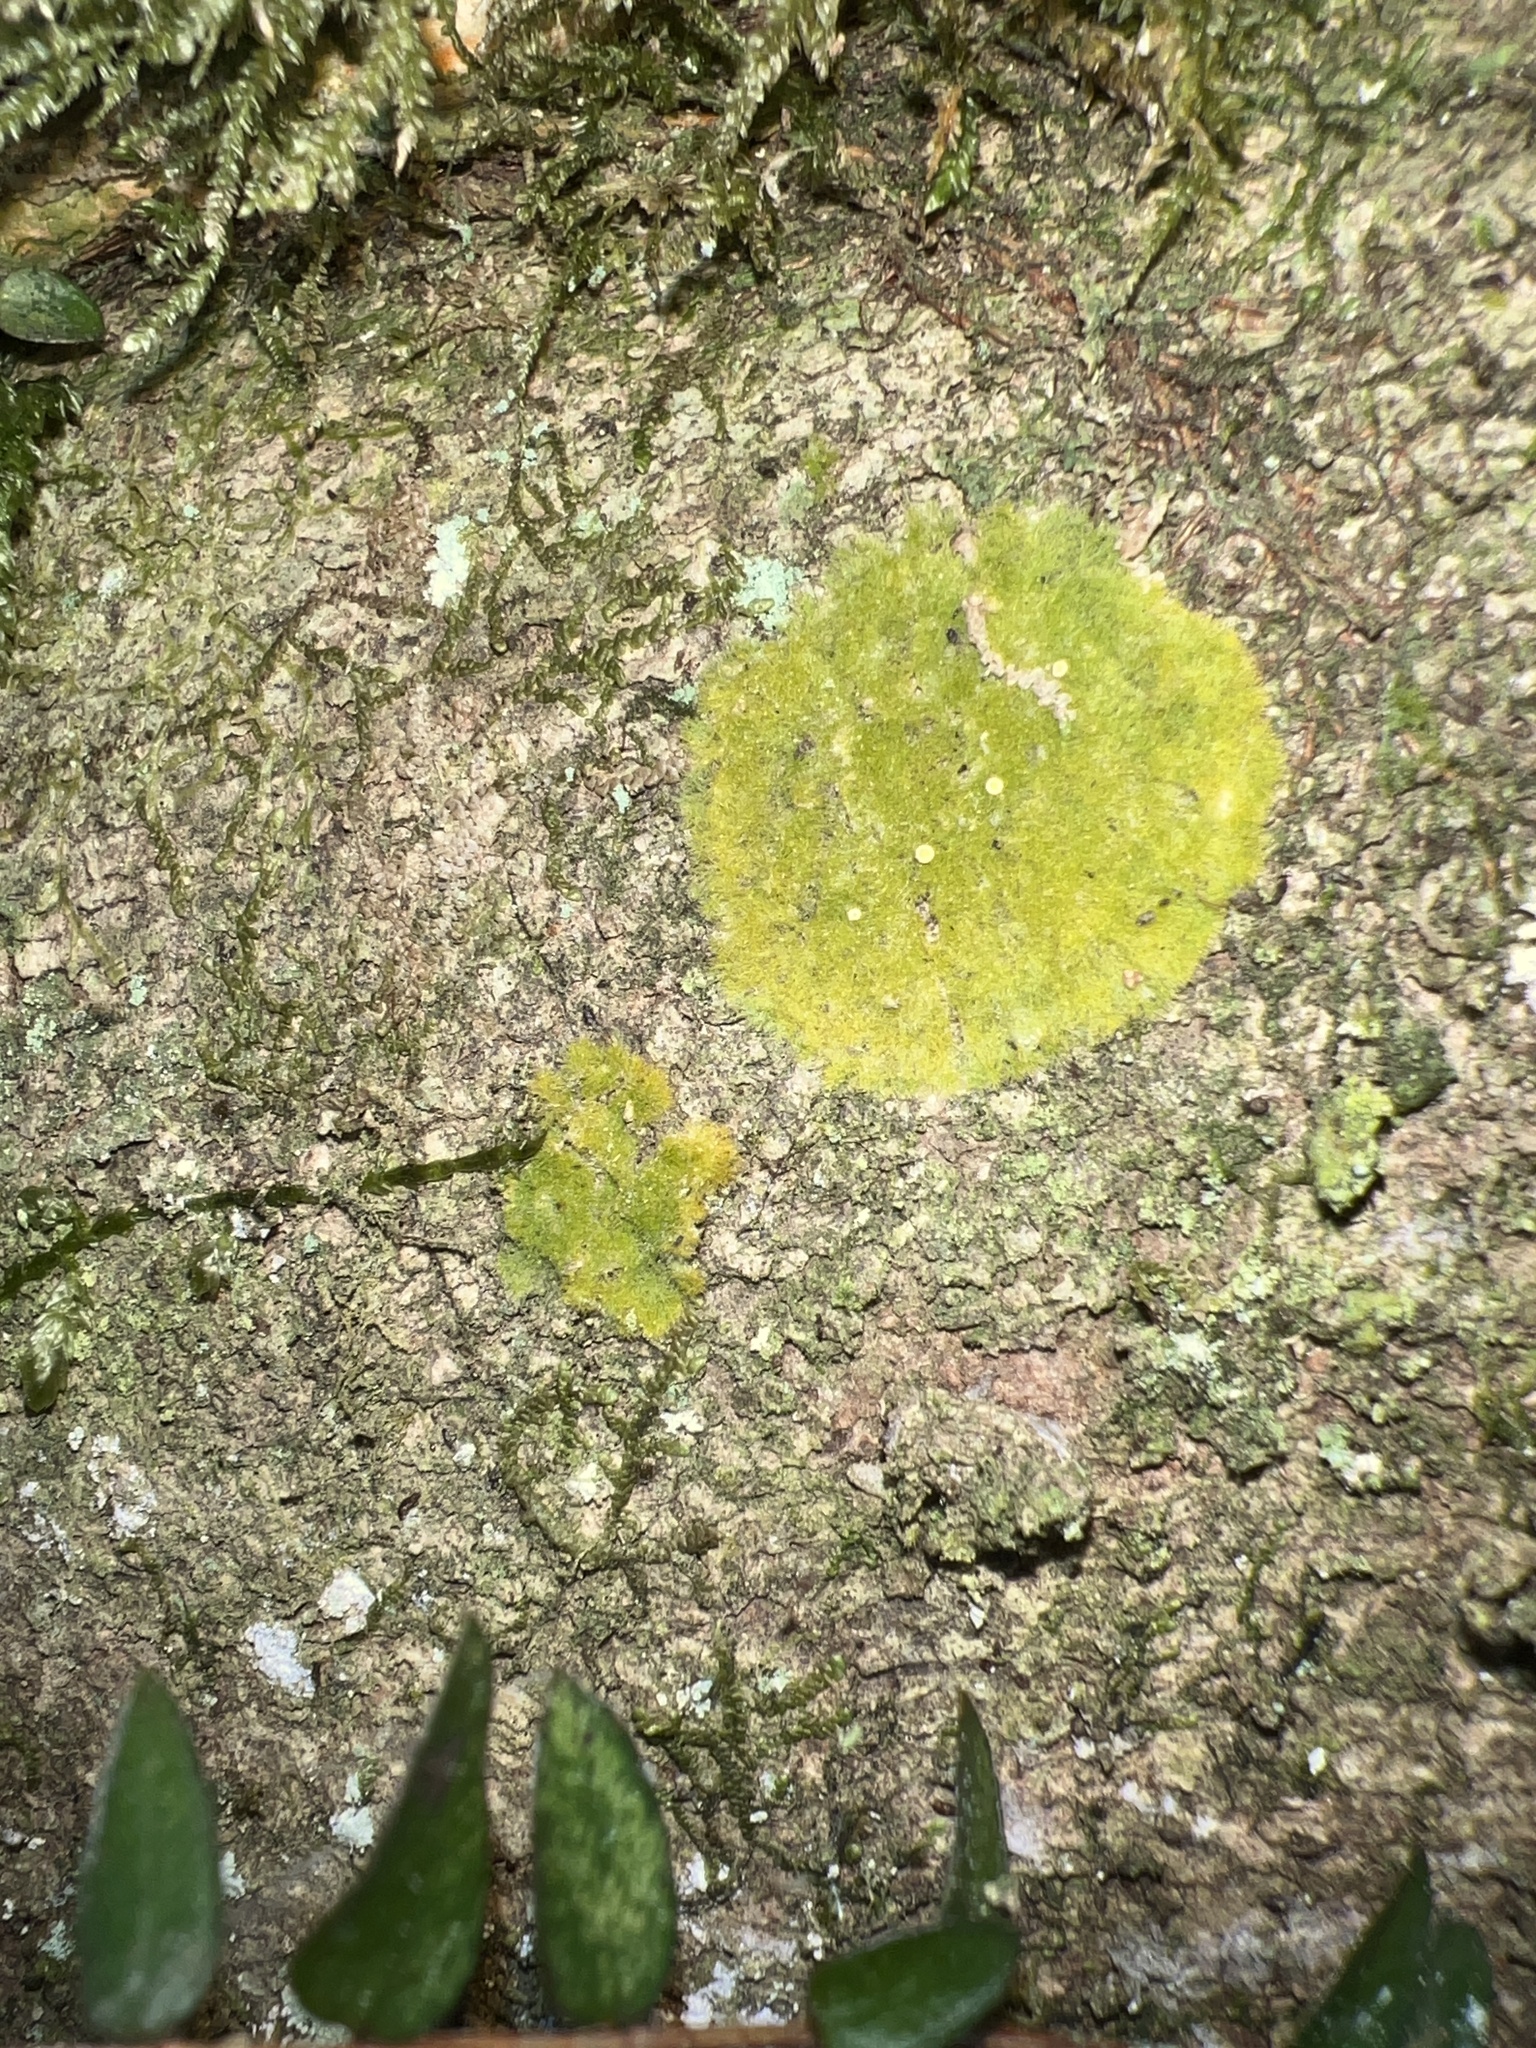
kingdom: Fungi
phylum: Ascomycota
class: Lecanoromycetes
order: Ostropales
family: Coenogoniaceae
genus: Coenogonium
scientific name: Coenogonium implexum
